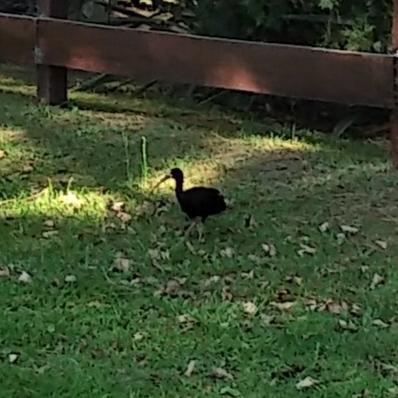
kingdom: Animalia
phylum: Chordata
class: Aves
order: Pelecaniformes
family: Threskiornithidae
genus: Phimosus
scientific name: Phimosus infuscatus
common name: Bare-faced ibis
